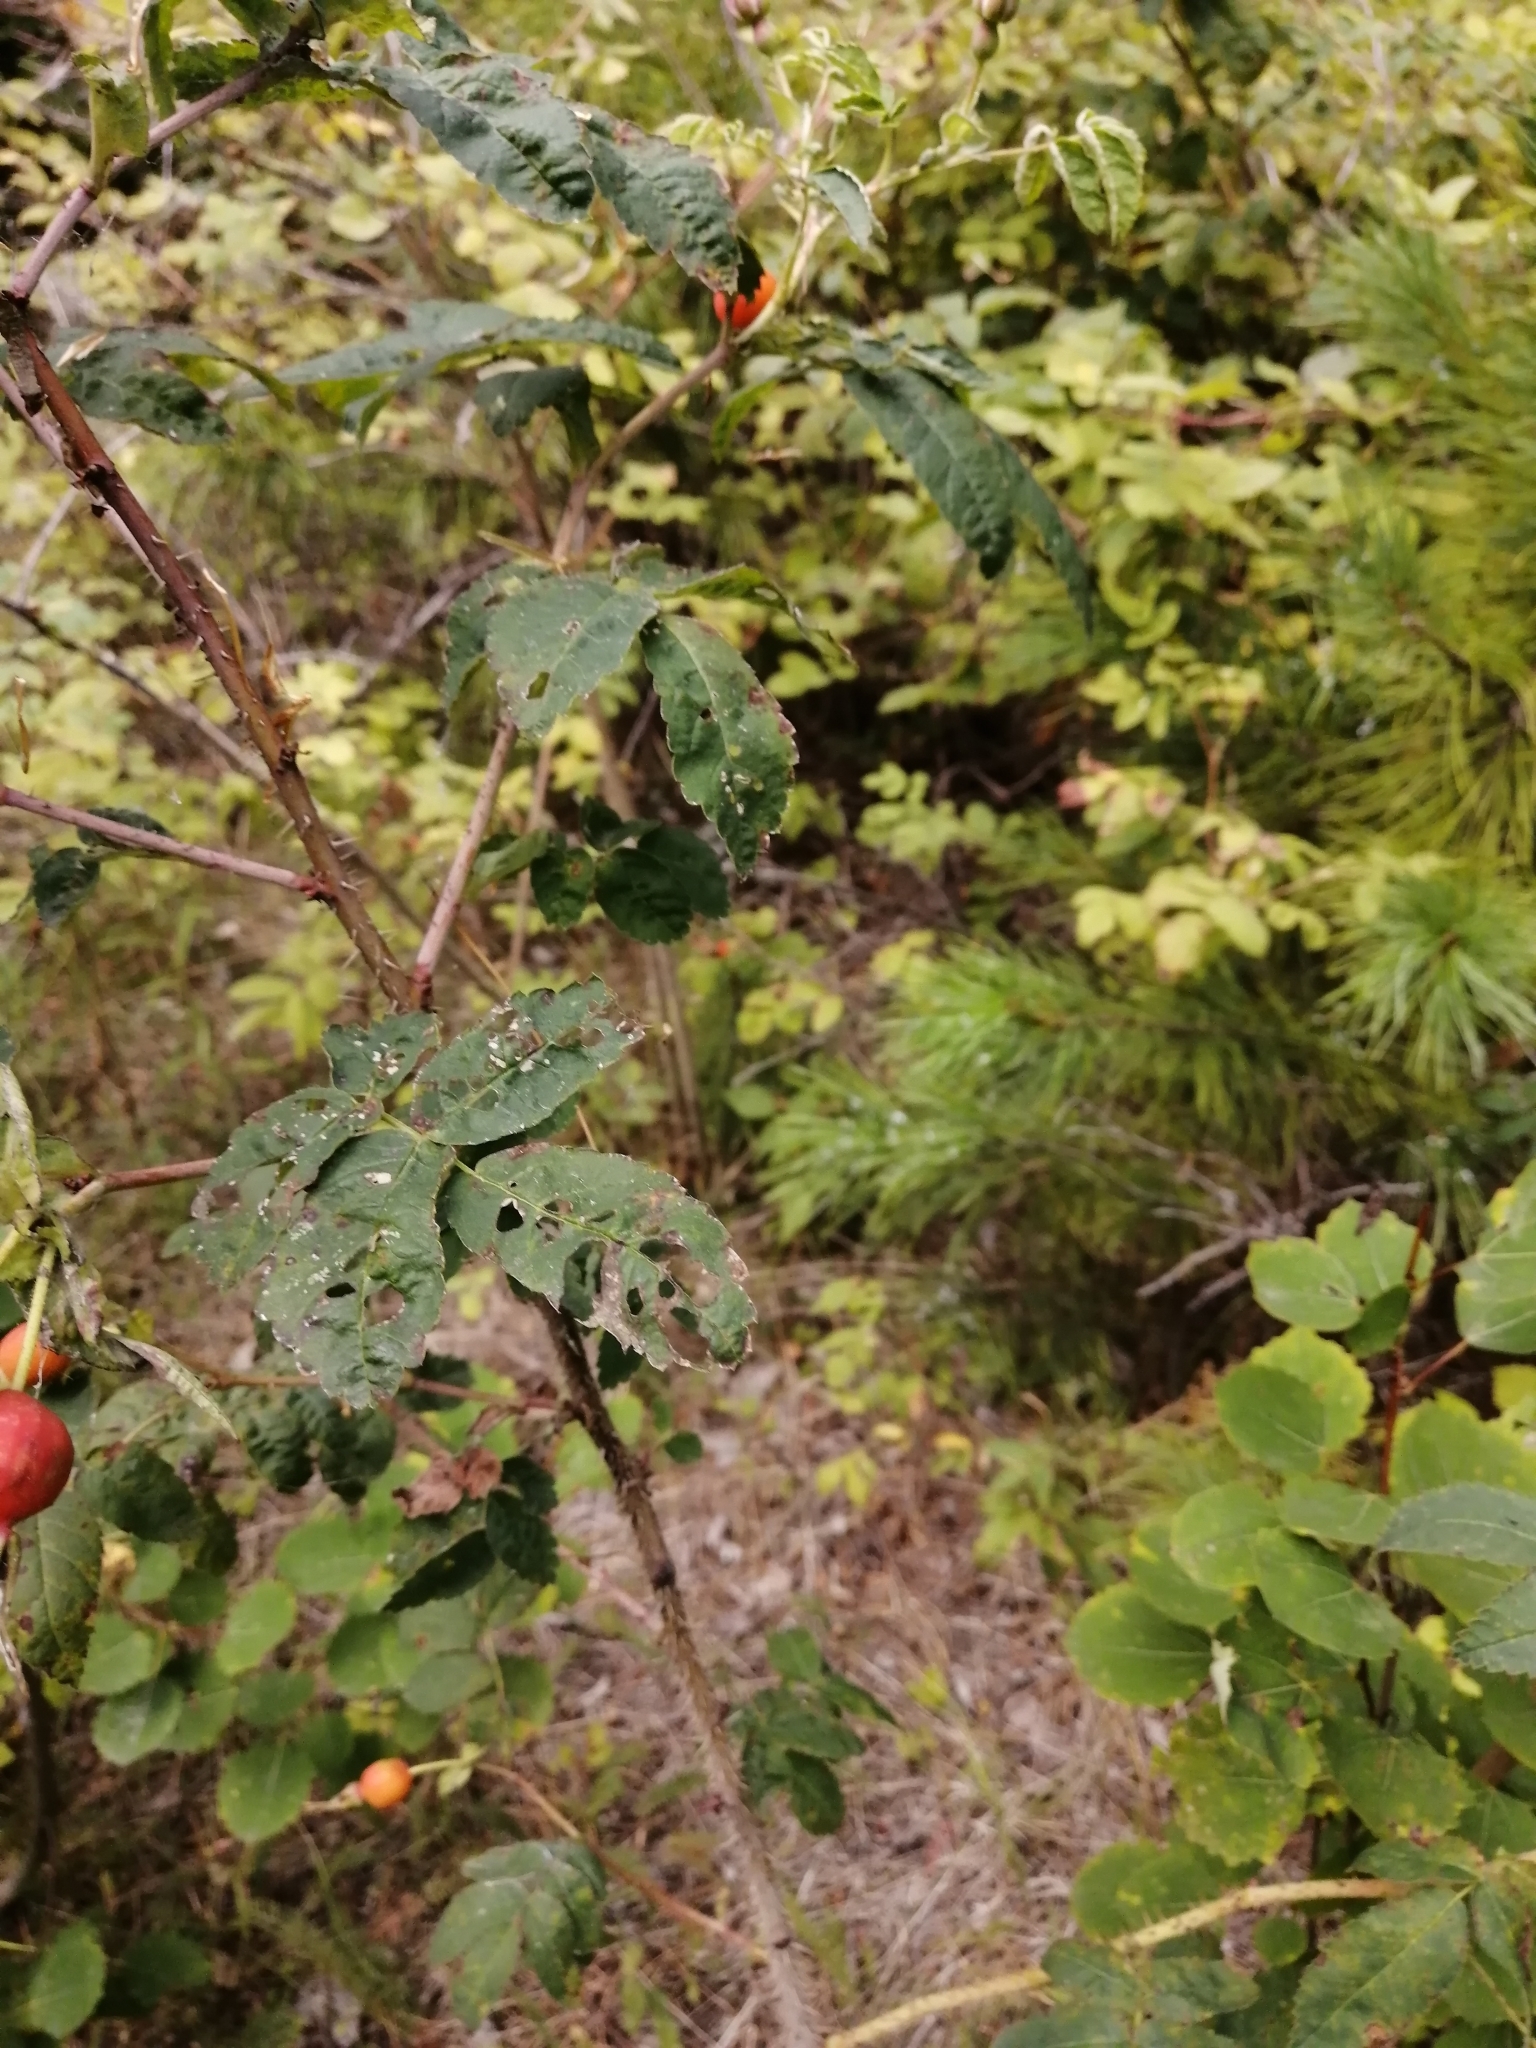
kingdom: Plantae
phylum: Tracheophyta
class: Magnoliopsida
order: Rosales
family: Rosaceae
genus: Rosa
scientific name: Rosa majalis
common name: Cinnamon rose
